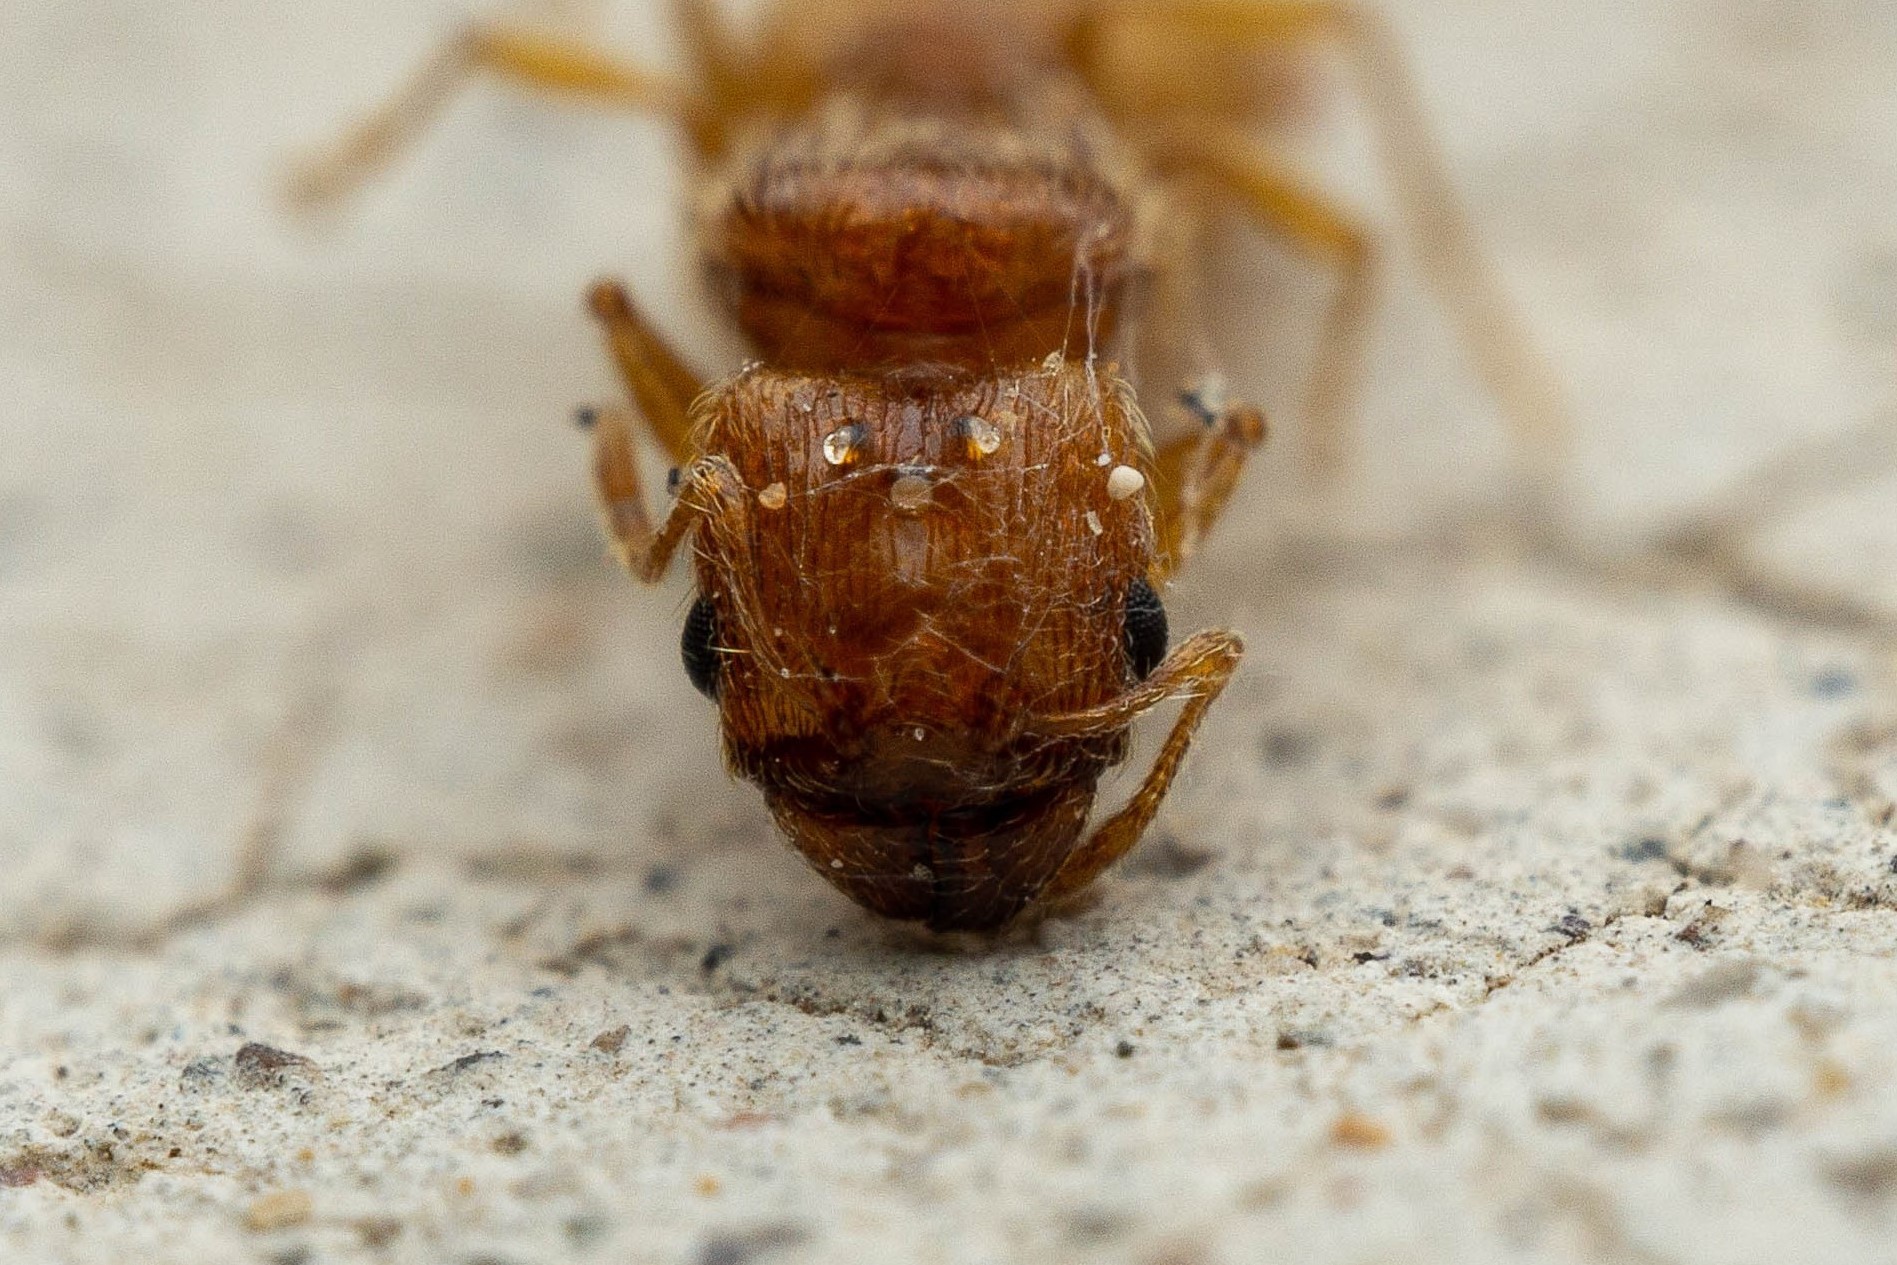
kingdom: Animalia
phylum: Arthropoda
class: Insecta
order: Hymenoptera
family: Formicidae
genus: Pheidole
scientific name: Pheidole furtiva
